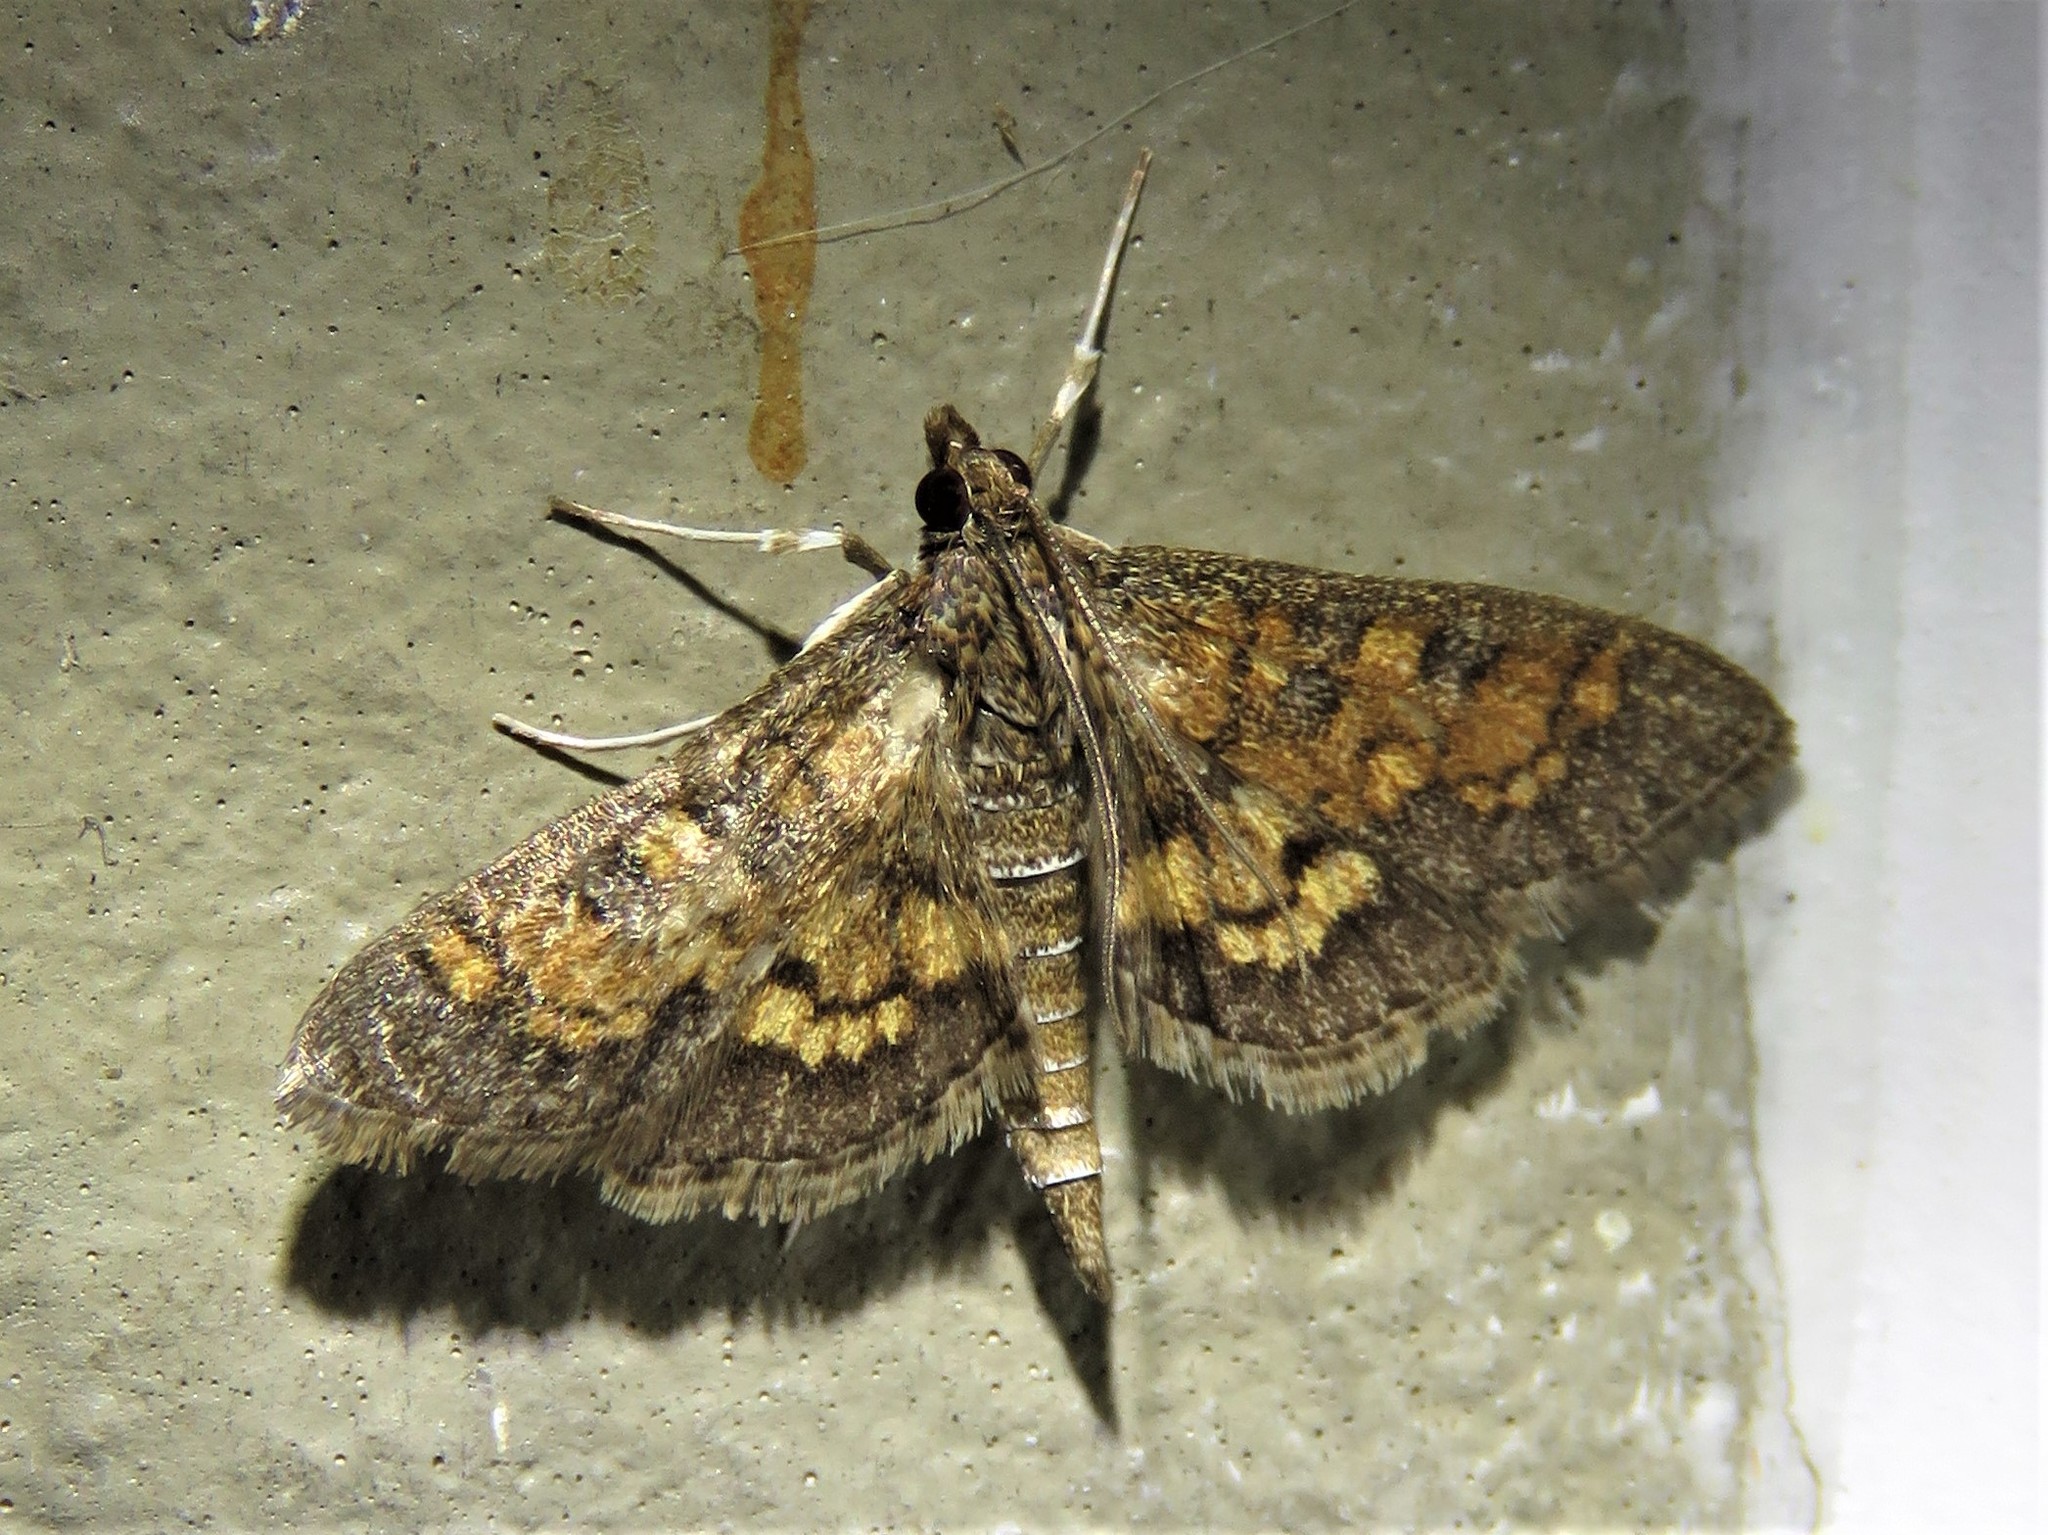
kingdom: Animalia
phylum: Arthropoda
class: Insecta
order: Lepidoptera
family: Crambidae
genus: Epipagis
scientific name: Epipagis adipaloides
